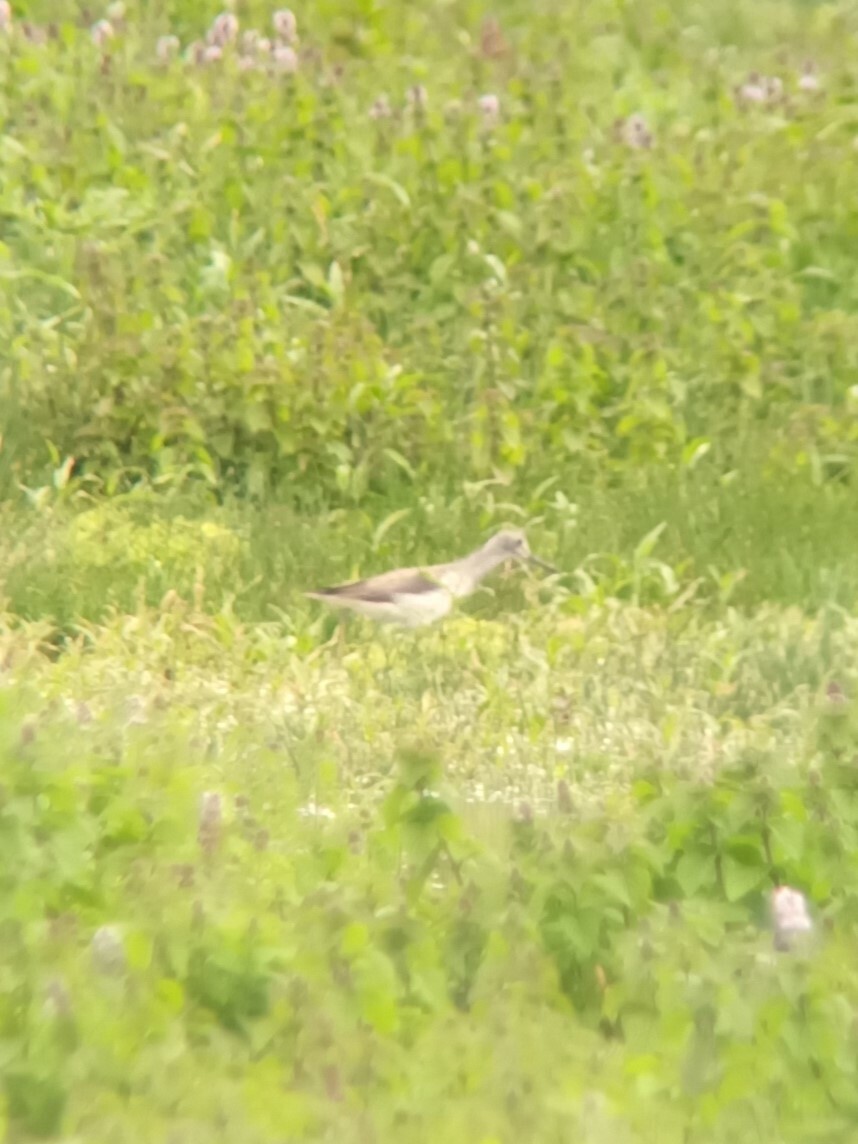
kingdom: Animalia
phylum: Chordata
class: Aves
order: Charadriiformes
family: Scolopacidae
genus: Tringa
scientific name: Tringa nebularia
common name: Common greenshank
